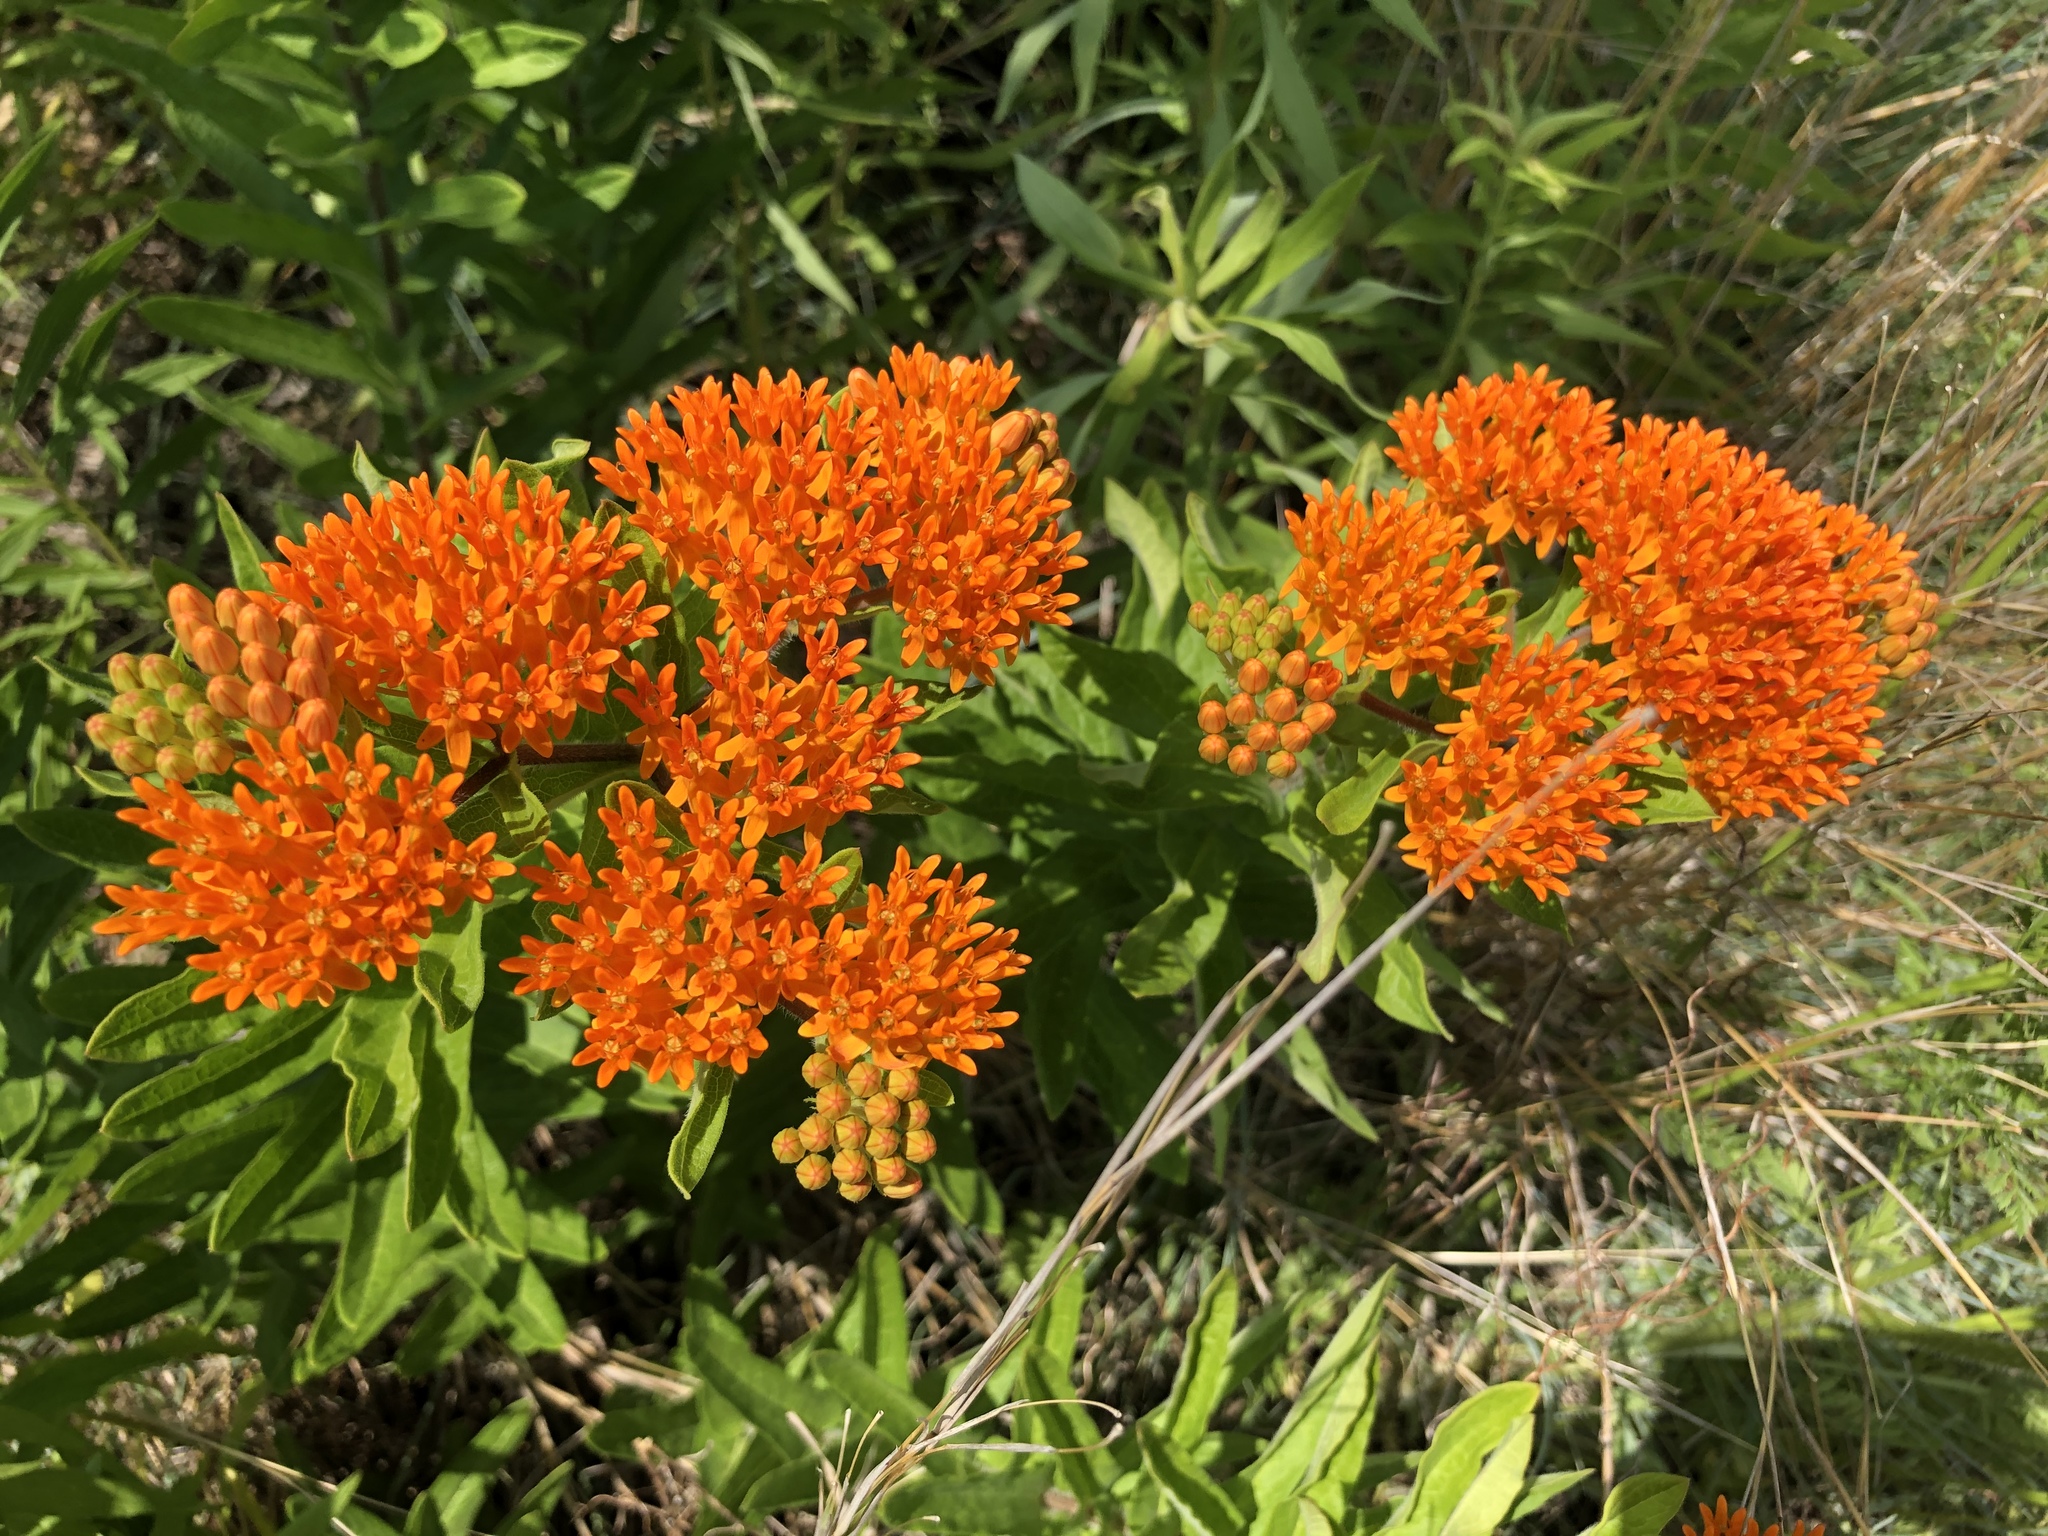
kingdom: Plantae
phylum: Tracheophyta
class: Magnoliopsida
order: Gentianales
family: Apocynaceae
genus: Asclepias
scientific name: Asclepias tuberosa
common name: Butterfly milkweed
